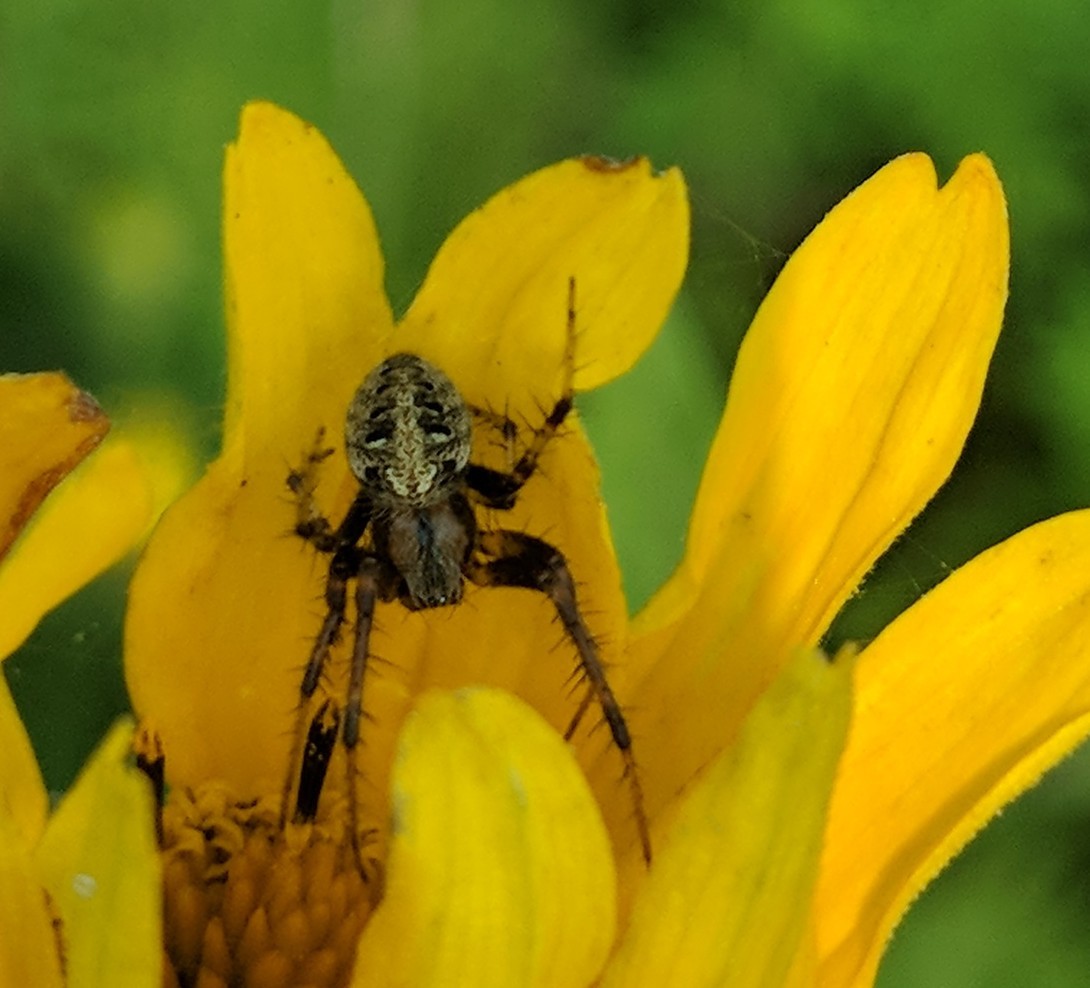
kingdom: Animalia
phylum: Arthropoda
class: Arachnida
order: Araneae
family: Araneidae
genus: Neoscona
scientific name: Neoscona arabesca
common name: Orb weavers
